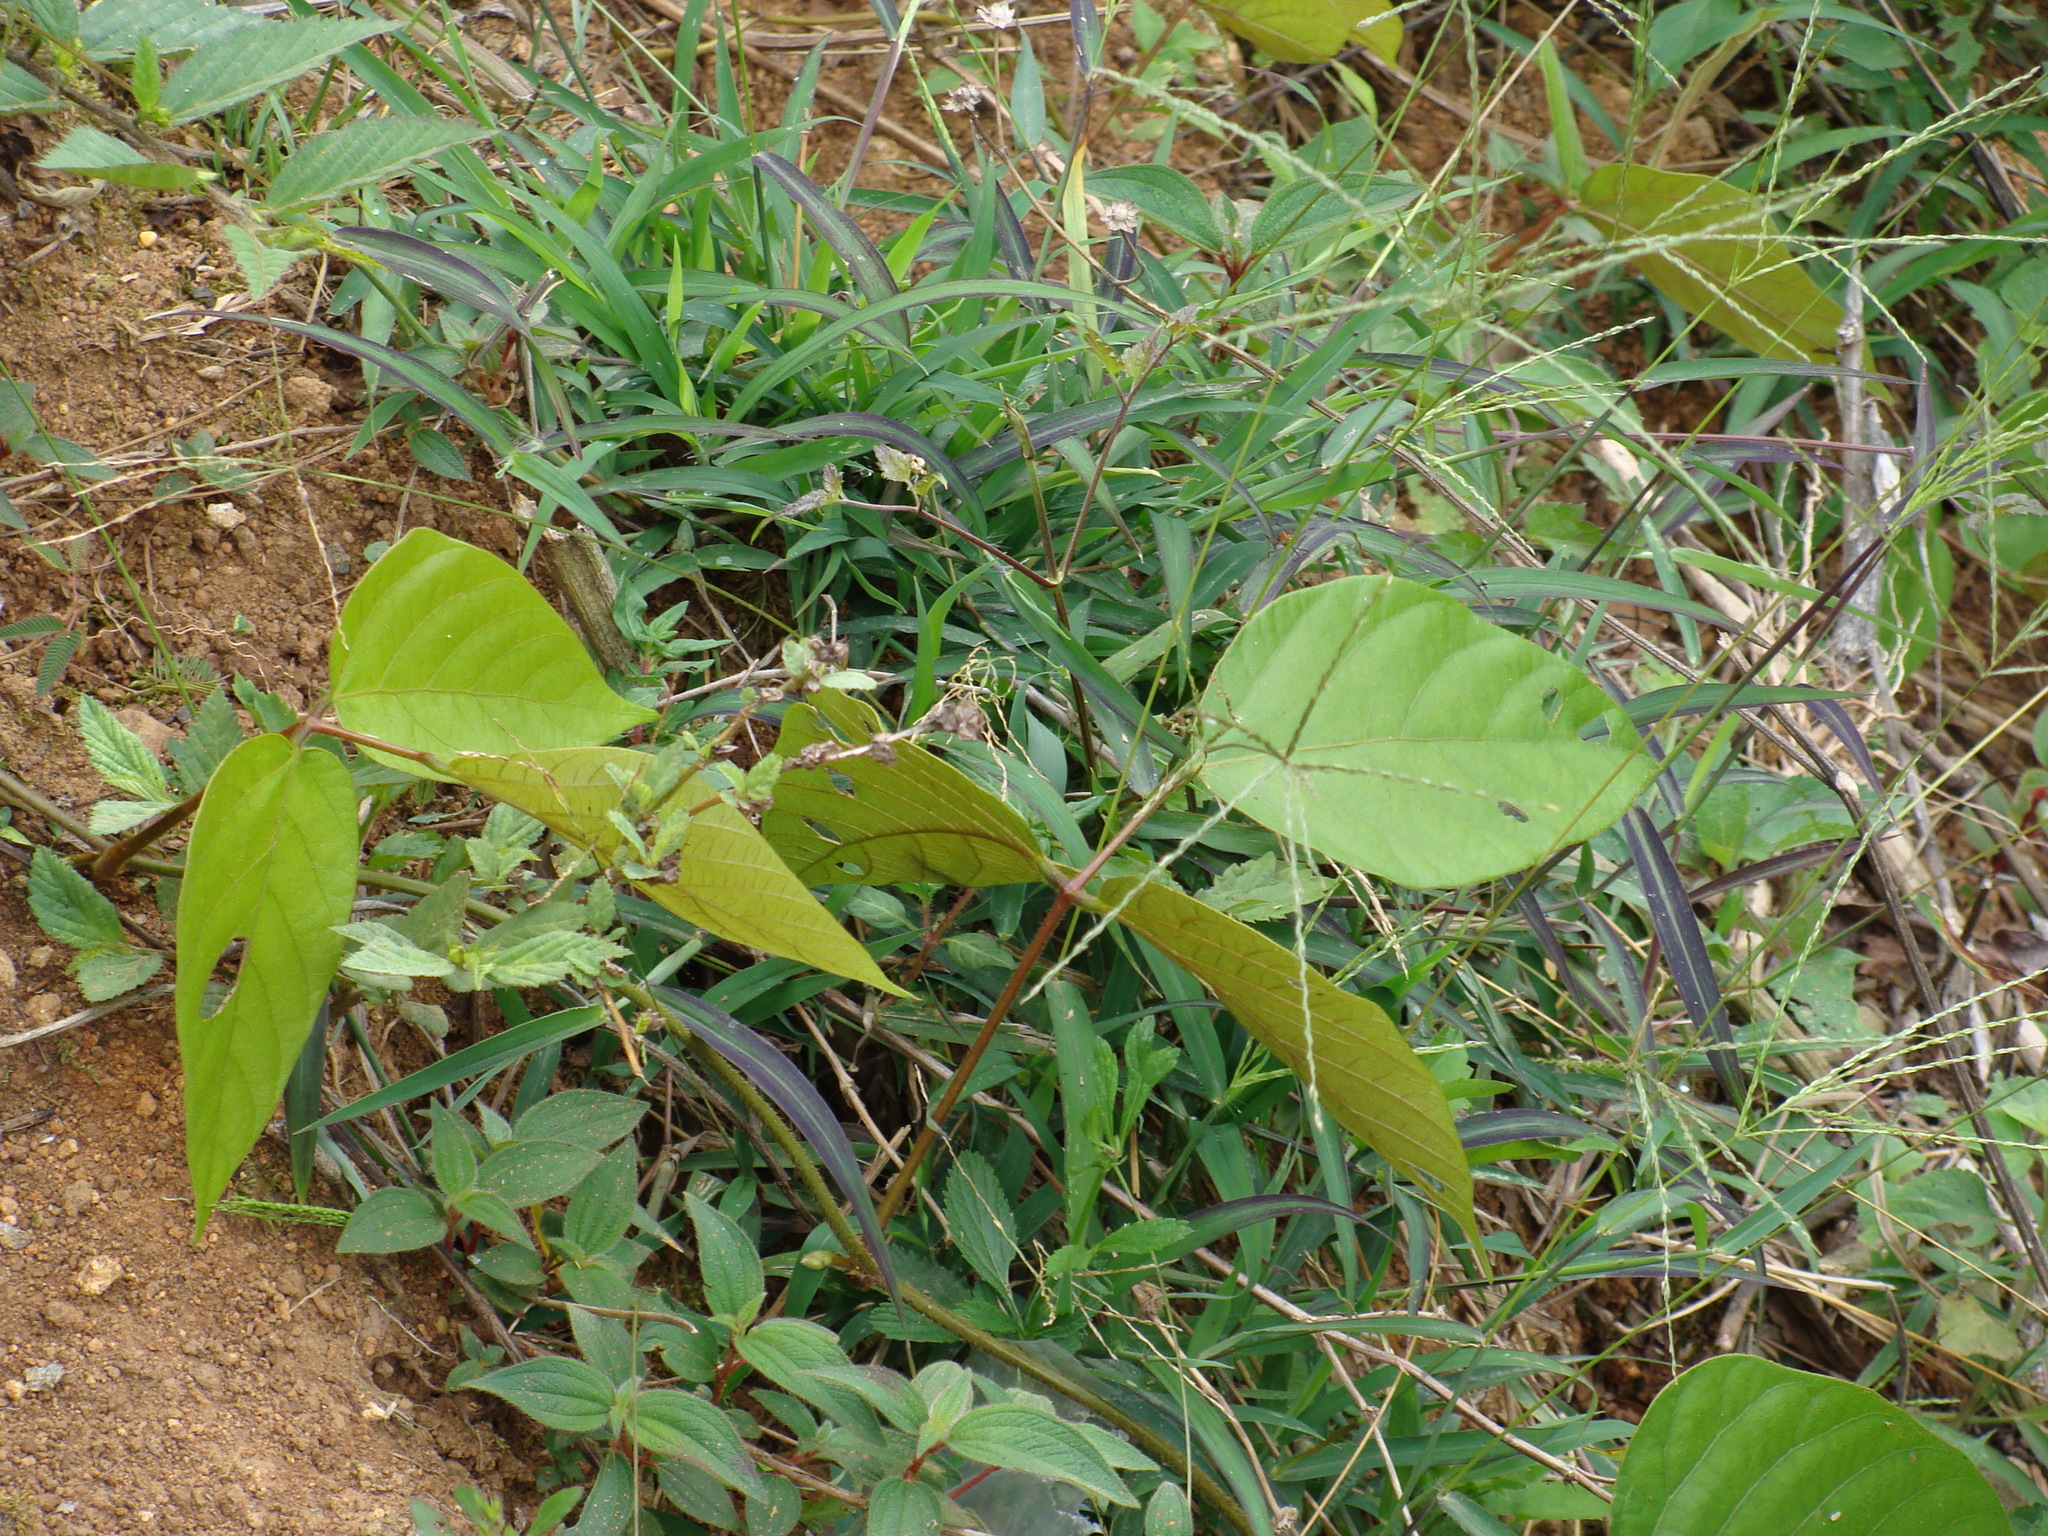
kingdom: Plantae
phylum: Tracheophyta
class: Magnoliopsida
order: Fabales
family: Fabaceae
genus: Mucuna
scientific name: Mucuna argyrophylla
